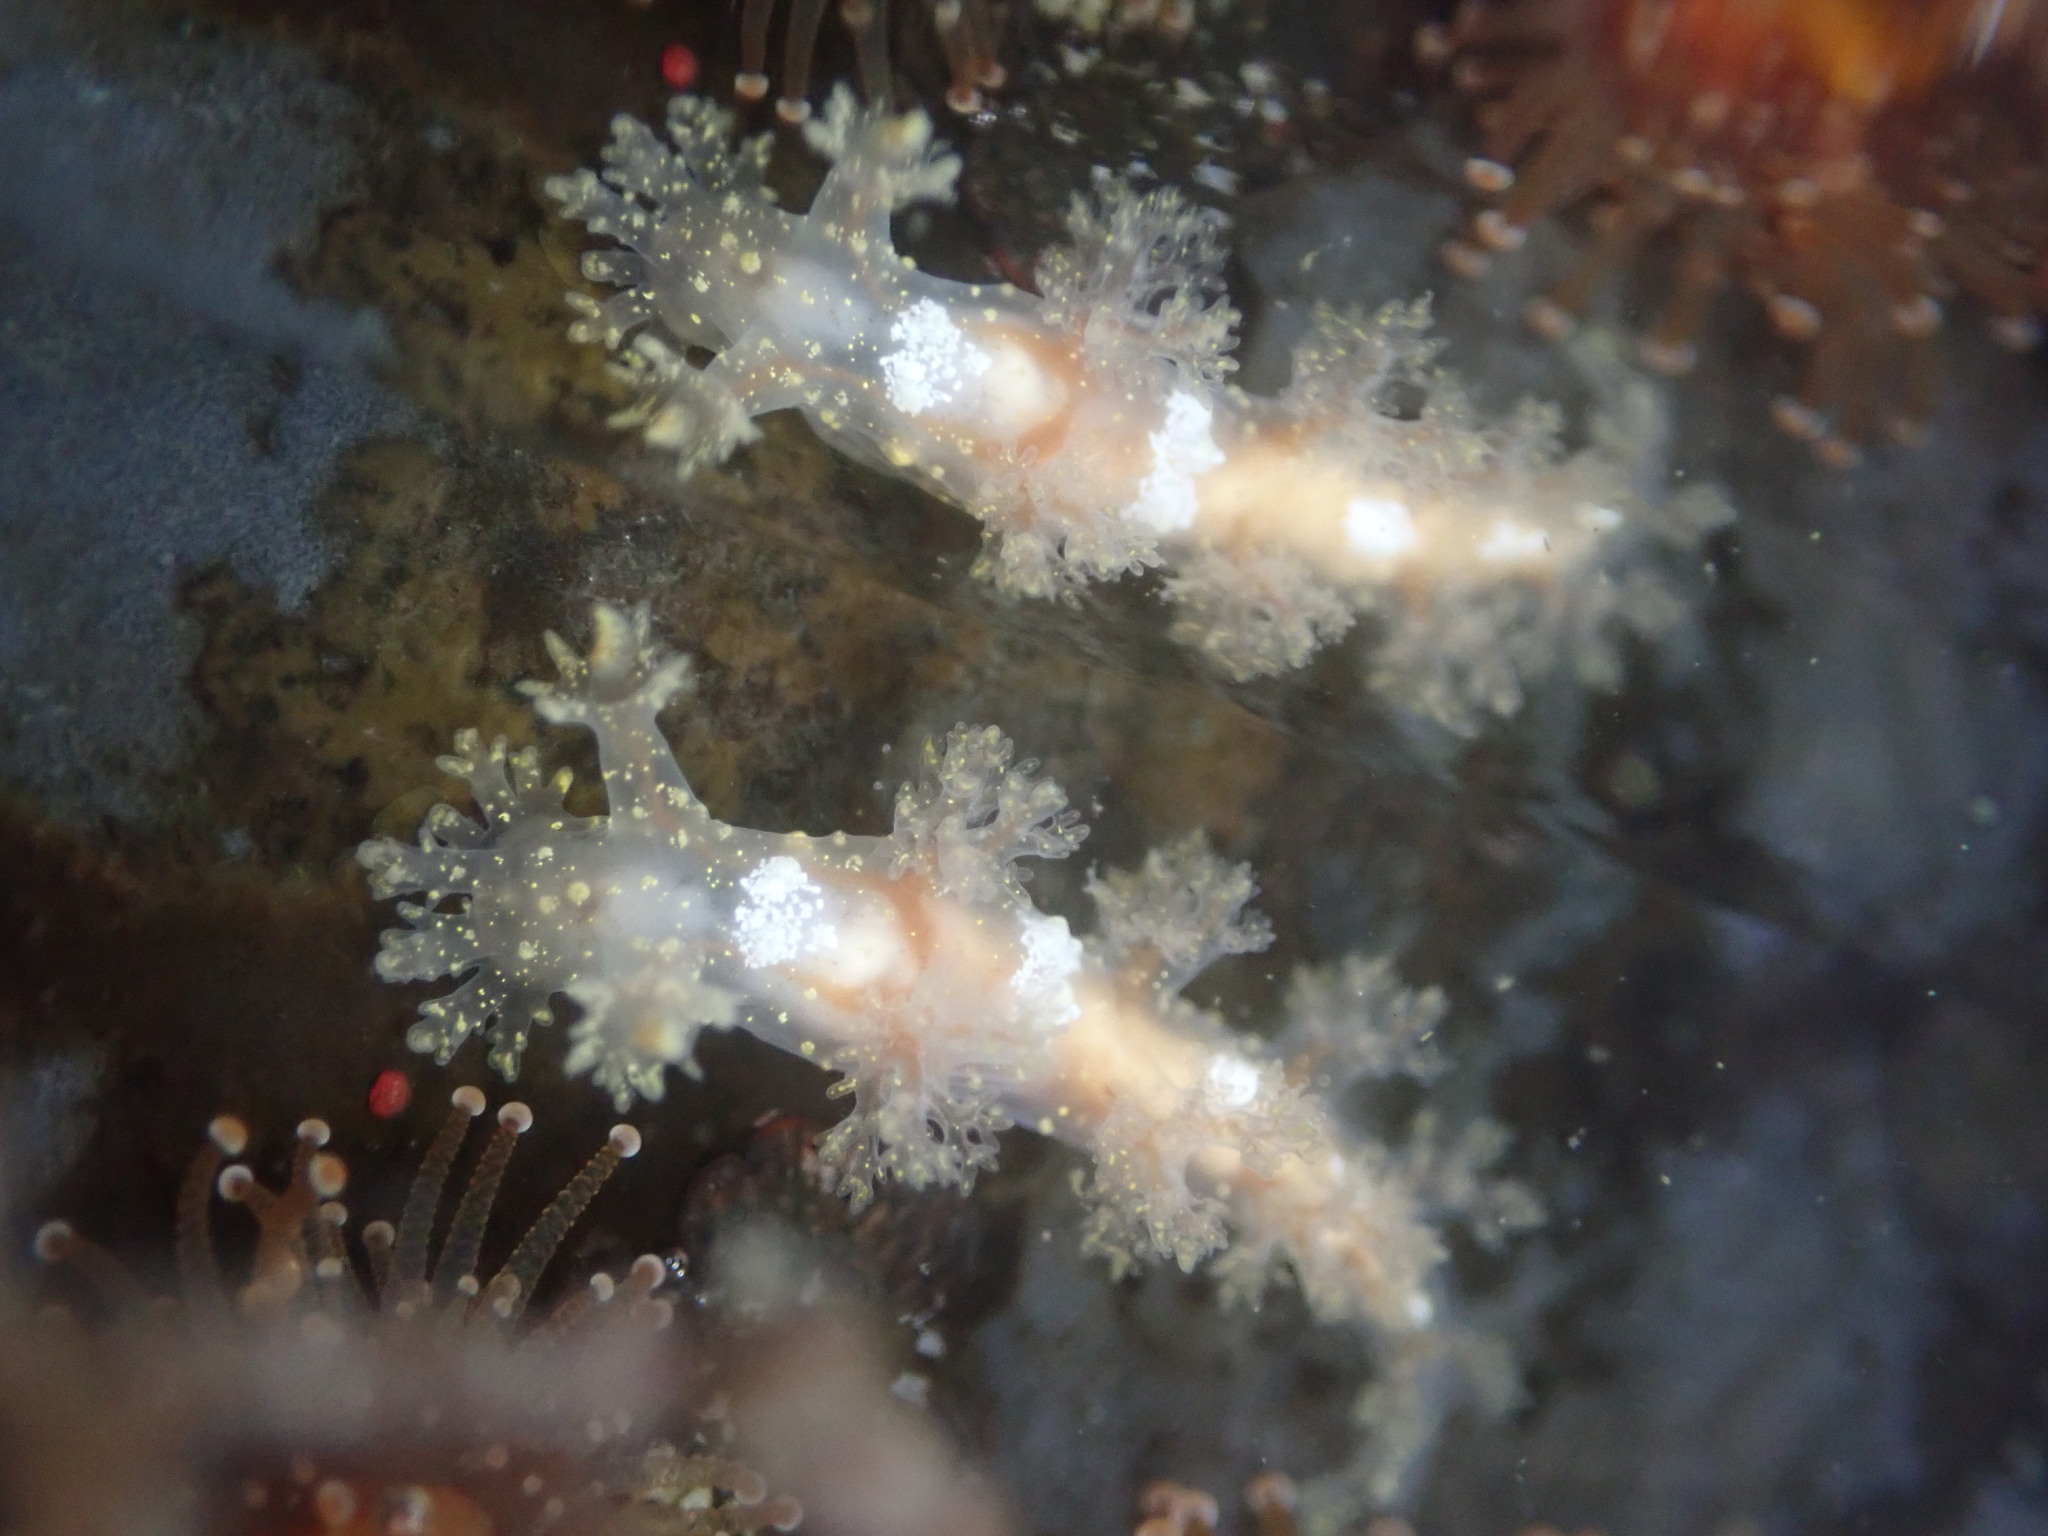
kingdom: Animalia
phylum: Mollusca
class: Gastropoda
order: Nudibranchia
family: Dendronotidae
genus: Dendronotus
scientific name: Dendronotus subramosus
